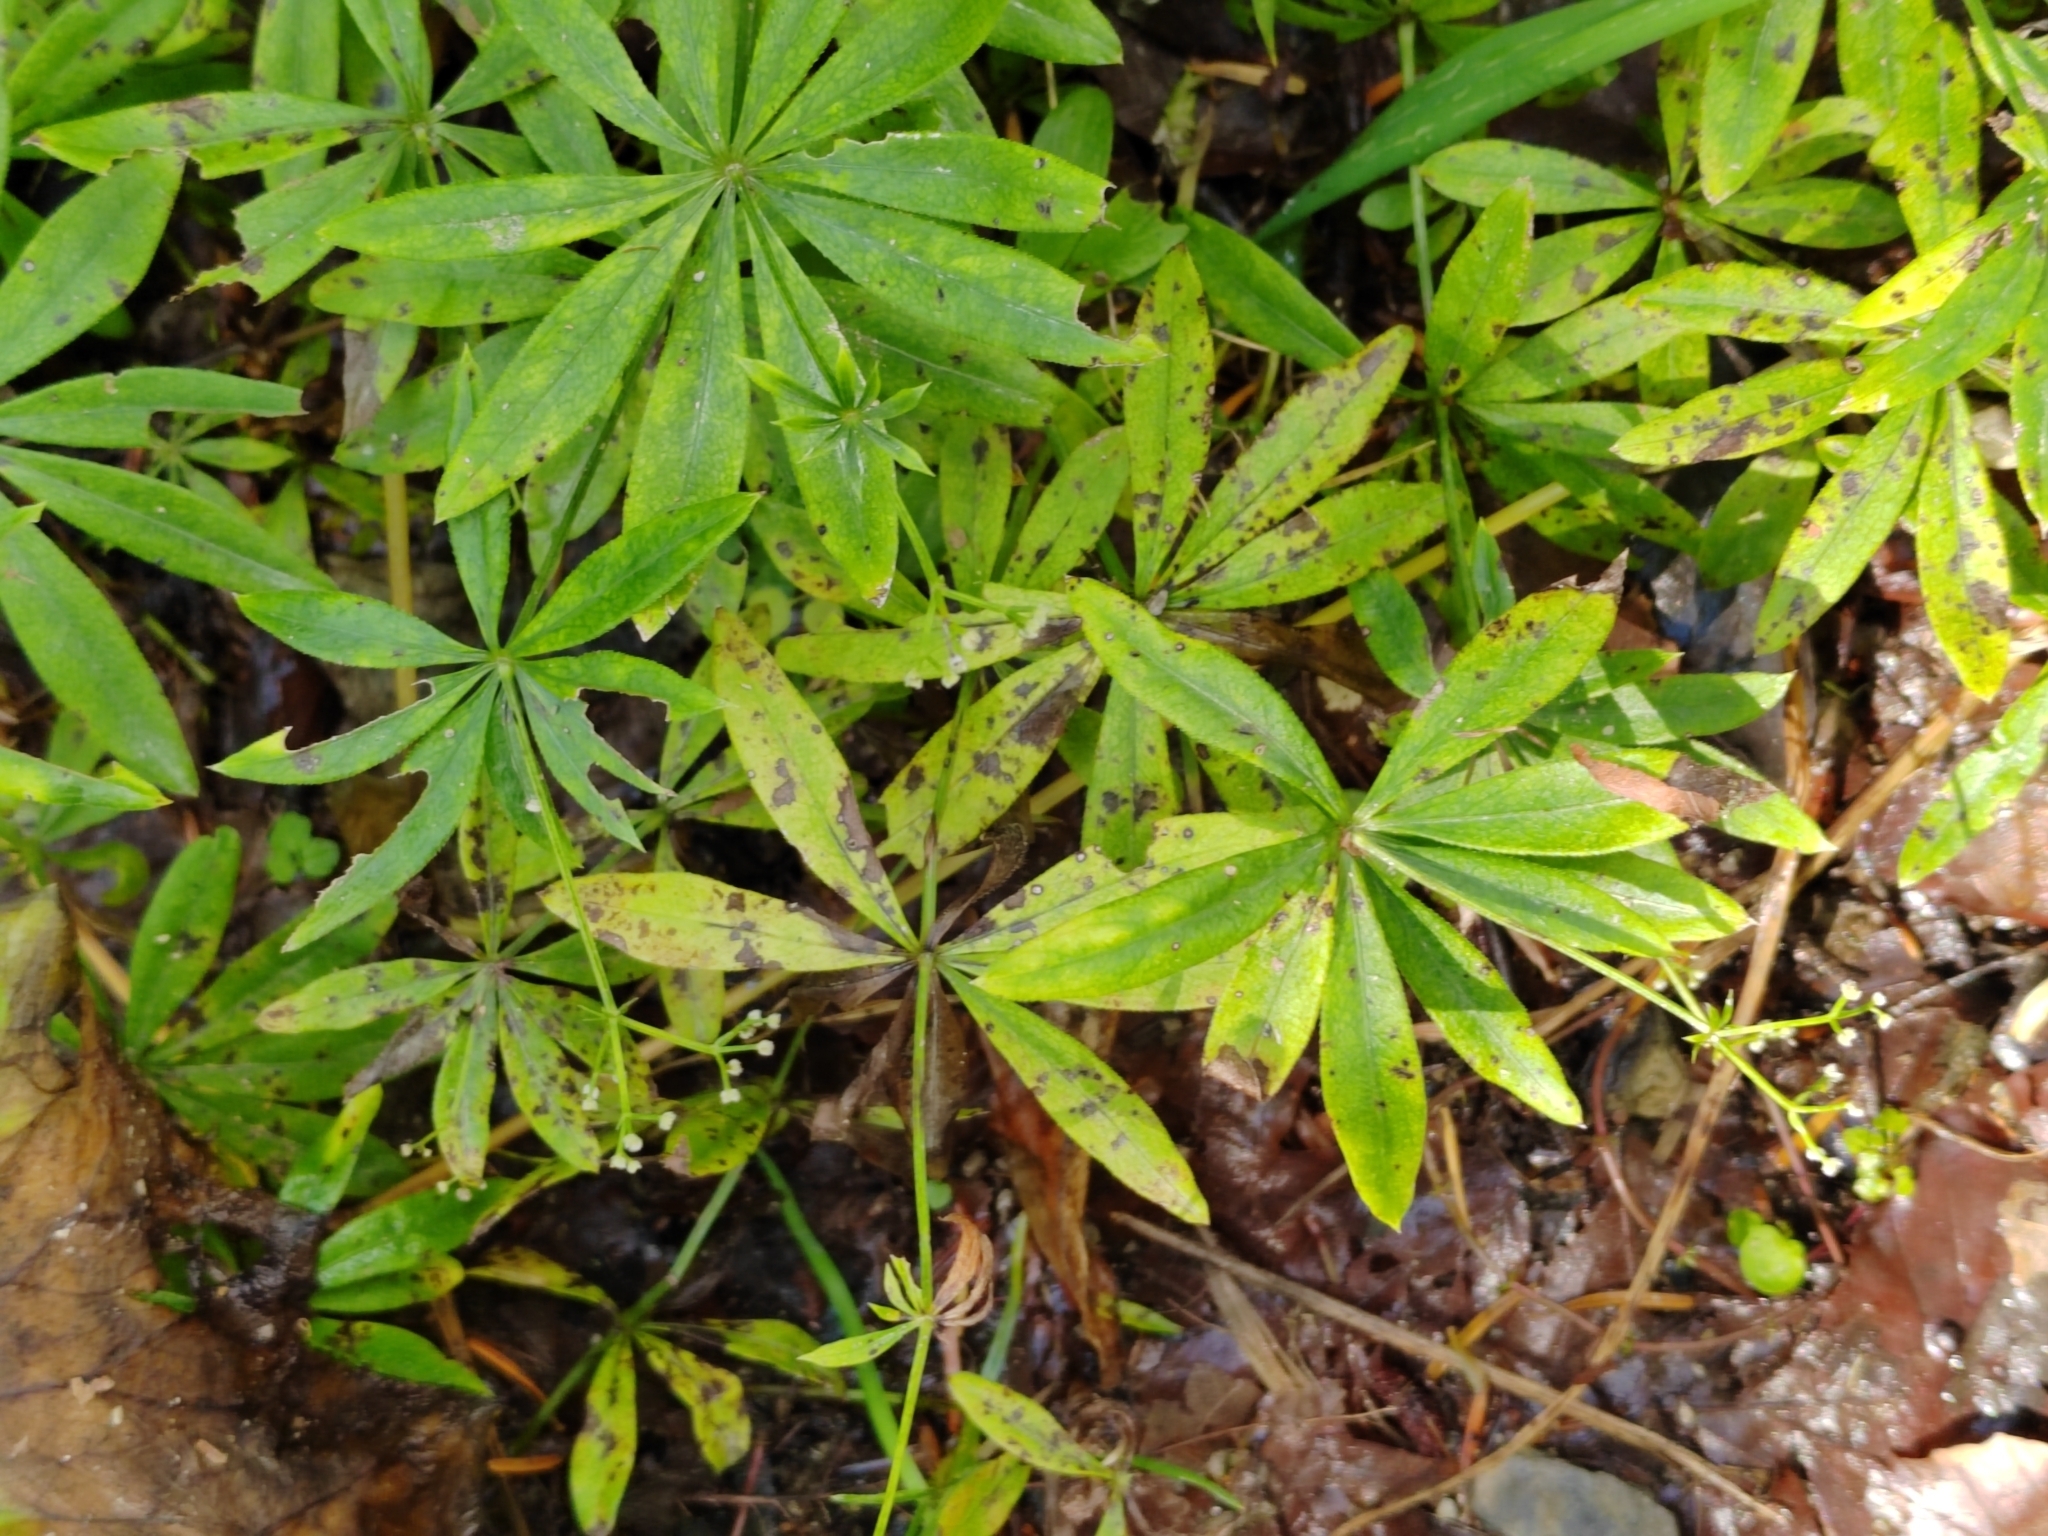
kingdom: Plantae
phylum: Tracheophyta
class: Magnoliopsida
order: Gentianales
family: Rubiaceae
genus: Galium
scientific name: Galium odoratum
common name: Sweet woodruff
